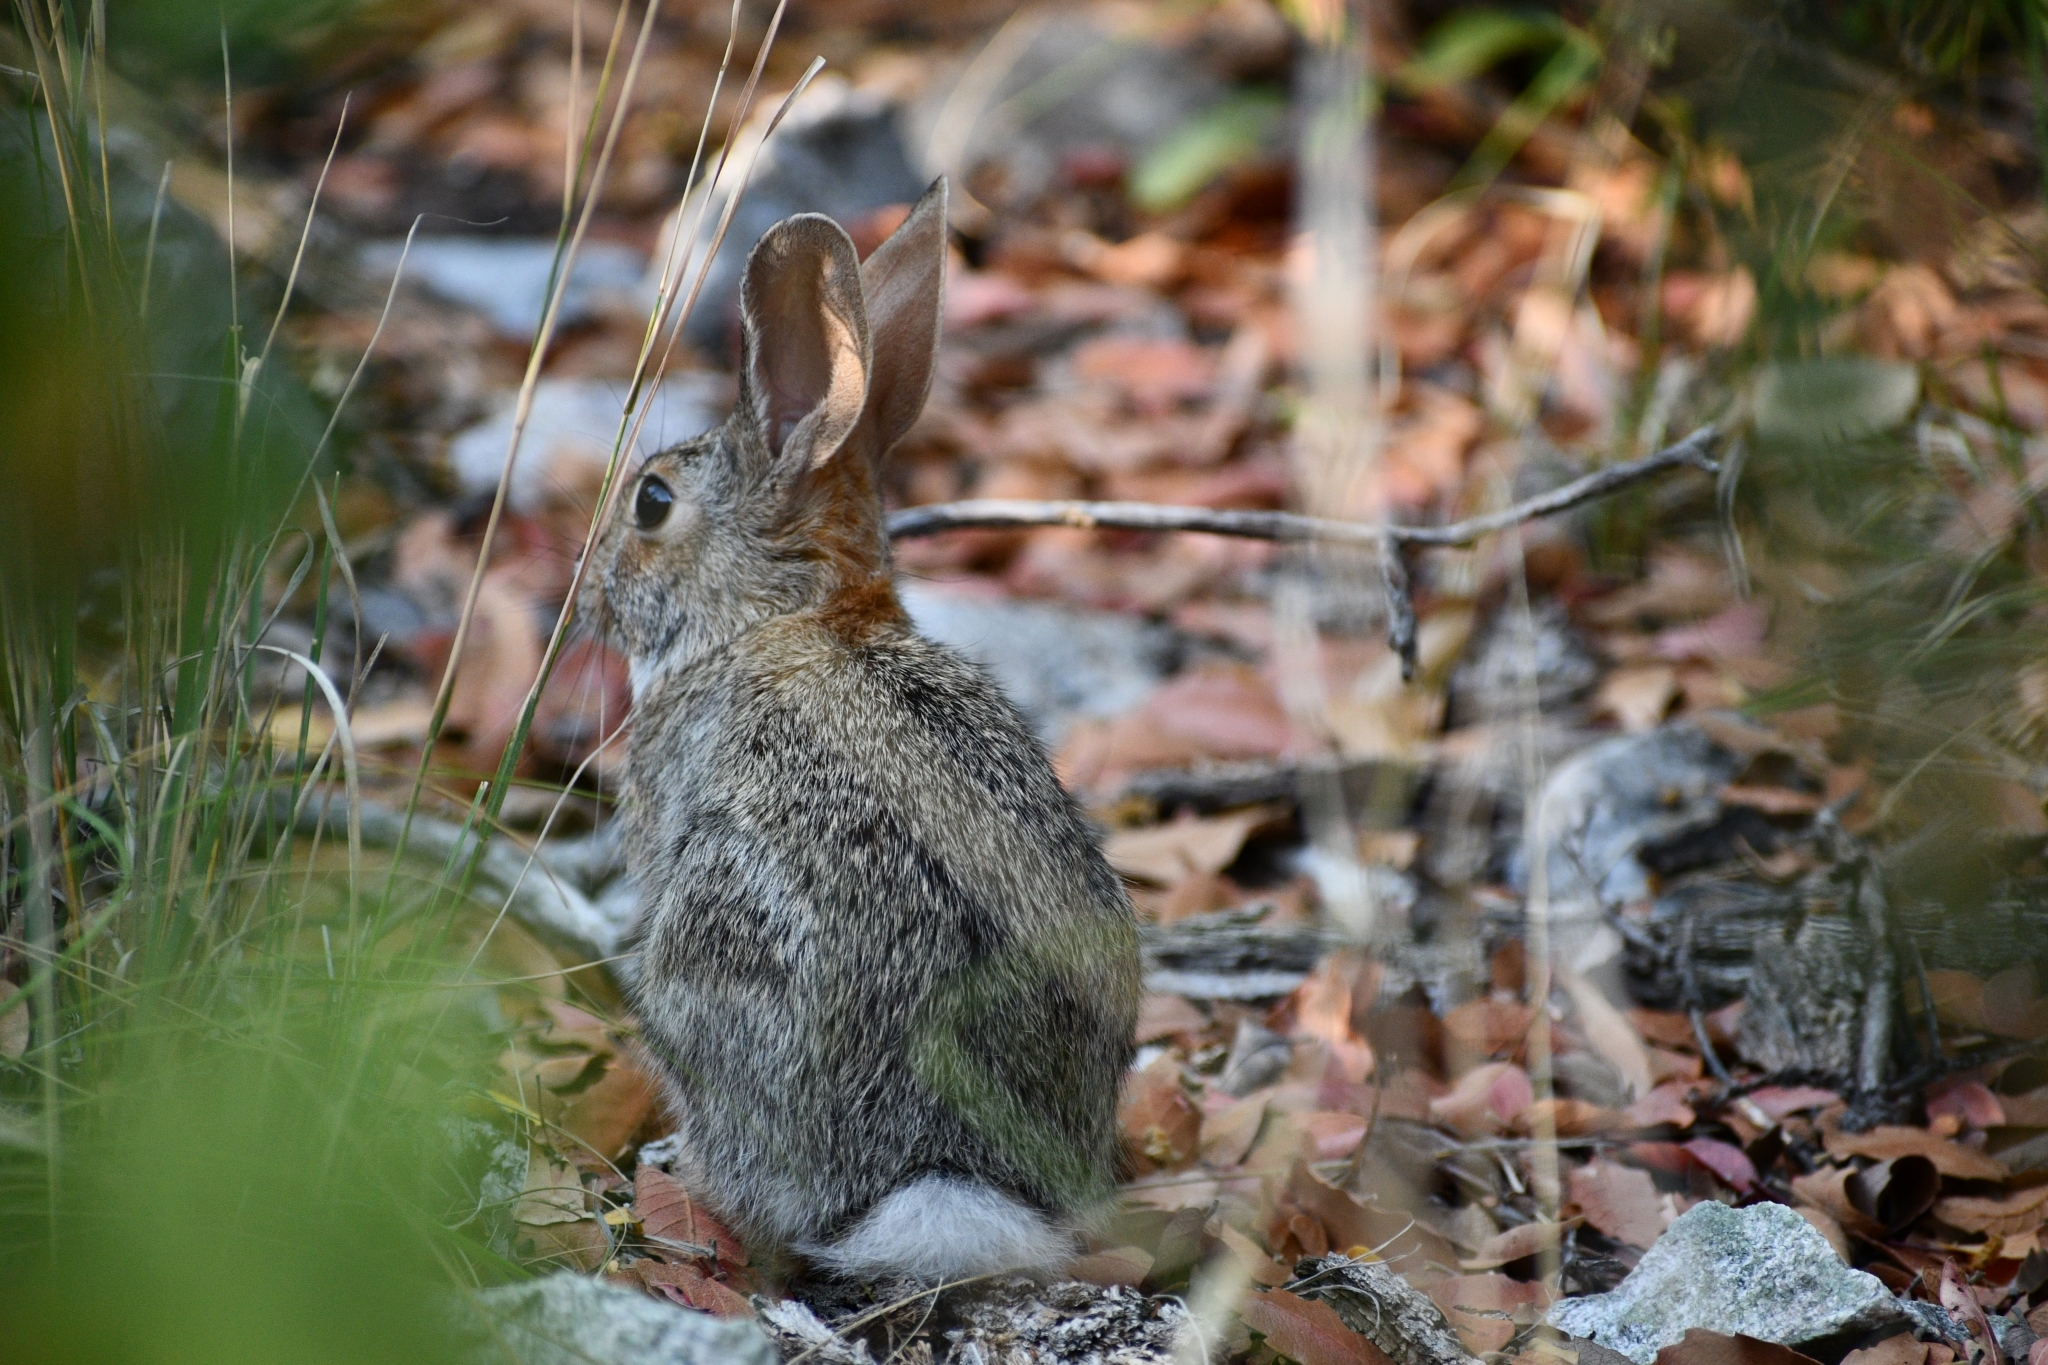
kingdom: Animalia
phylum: Chordata
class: Mammalia
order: Lagomorpha
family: Leporidae
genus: Sylvilagus
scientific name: Sylvilagus audubonii
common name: Desert cottontail
